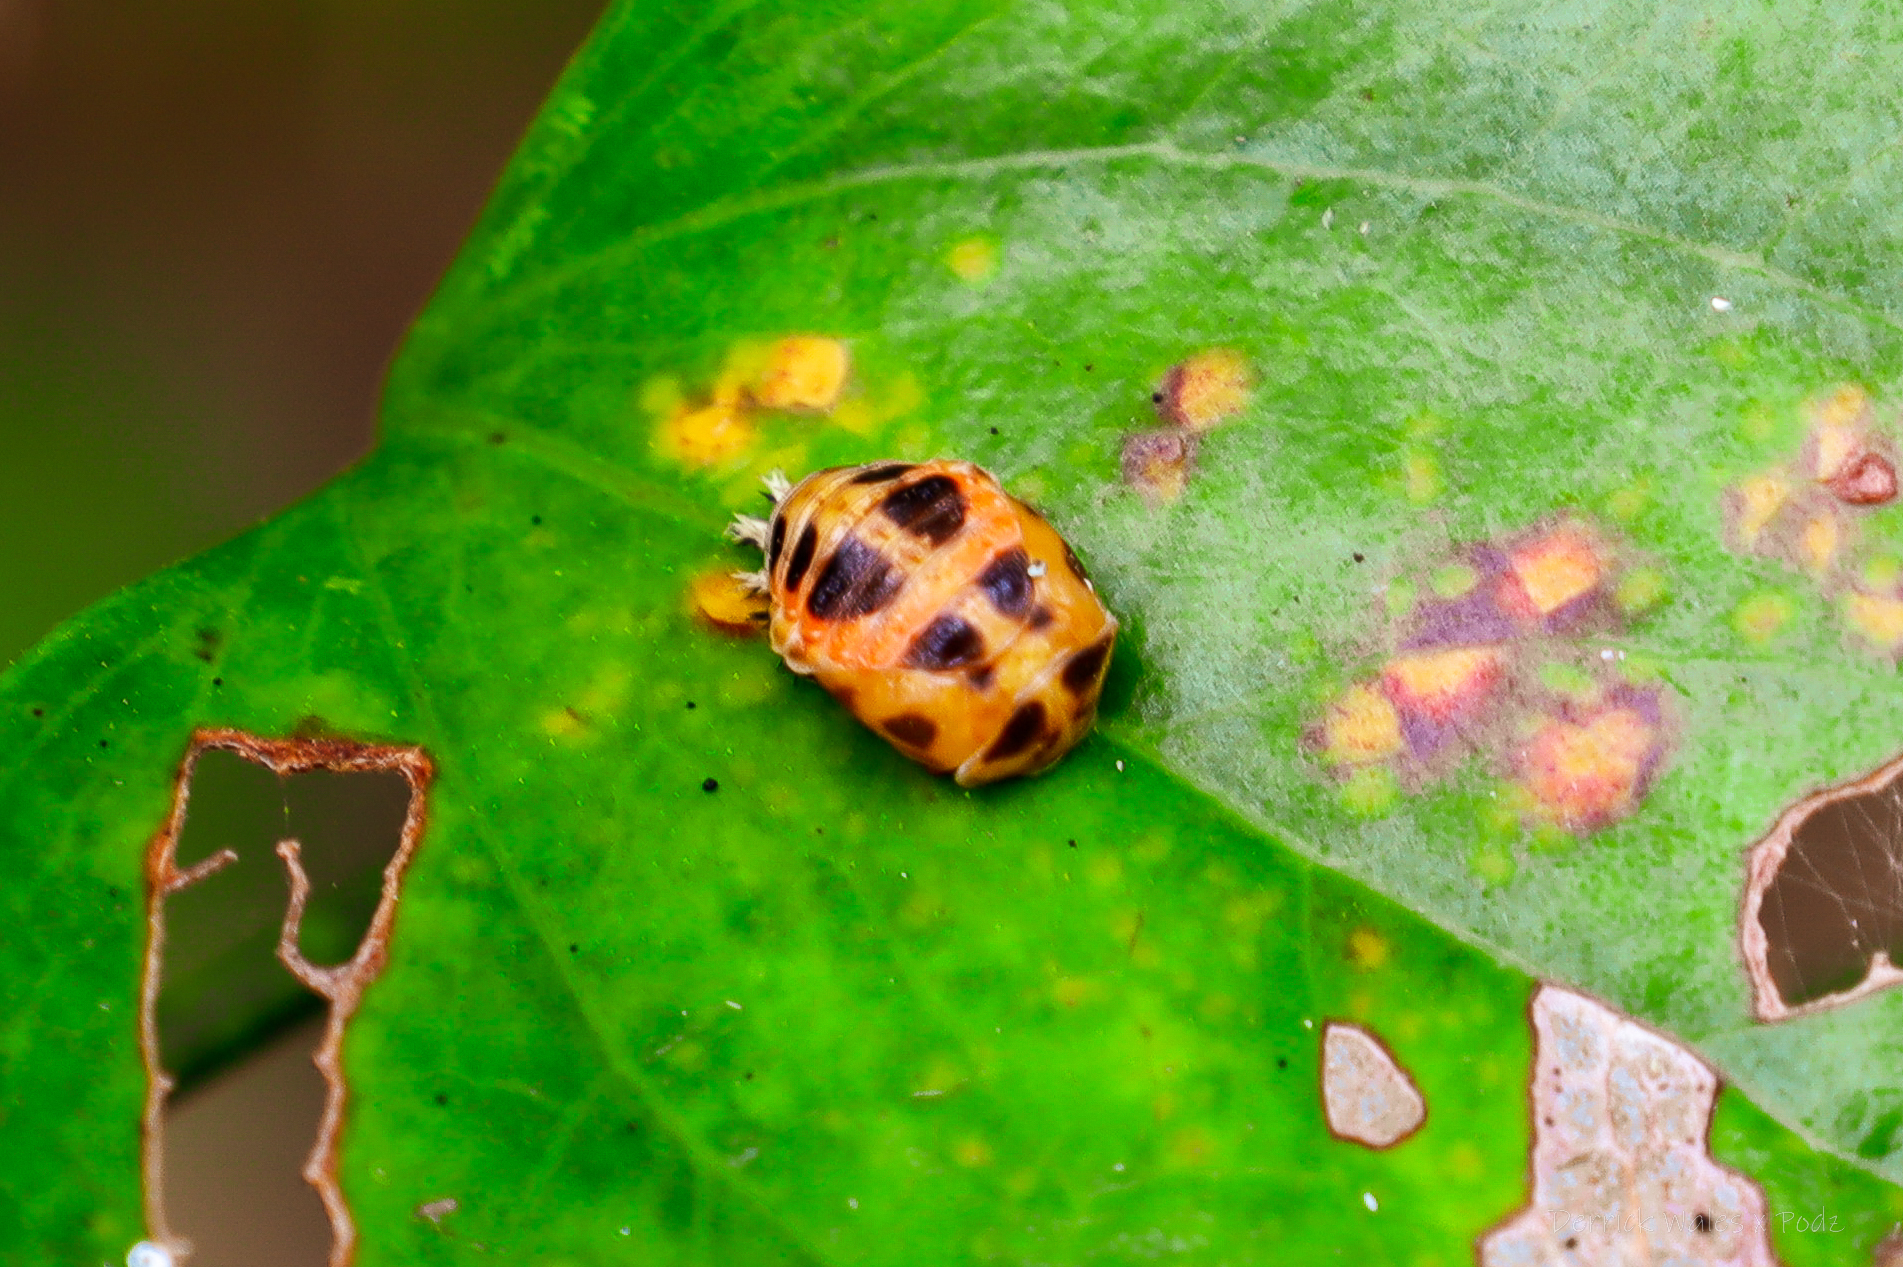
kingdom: Animalia
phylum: Arthropoda
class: Insecta
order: Coleoptera
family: Coccinellidae
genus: Harmonia
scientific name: Harmonia axyridis
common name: Harlequin ladybird
